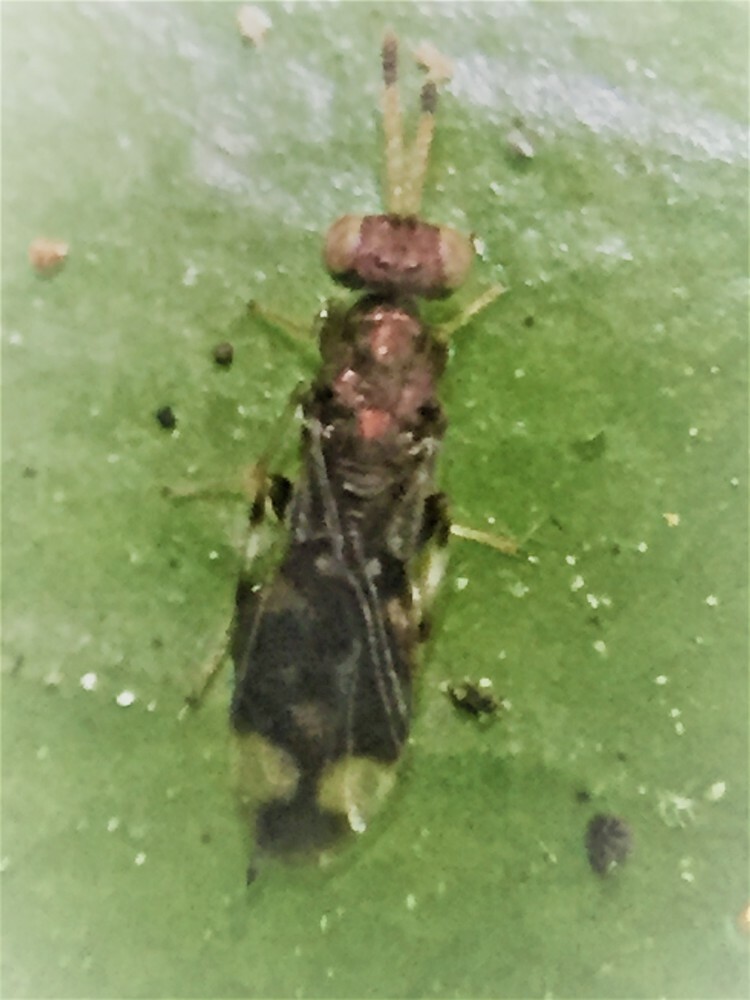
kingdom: Animalia
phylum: Arthropoda
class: Insecta
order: Hymenoptera
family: Pteromalidae
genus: Zeala
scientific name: Zeala walkerae
